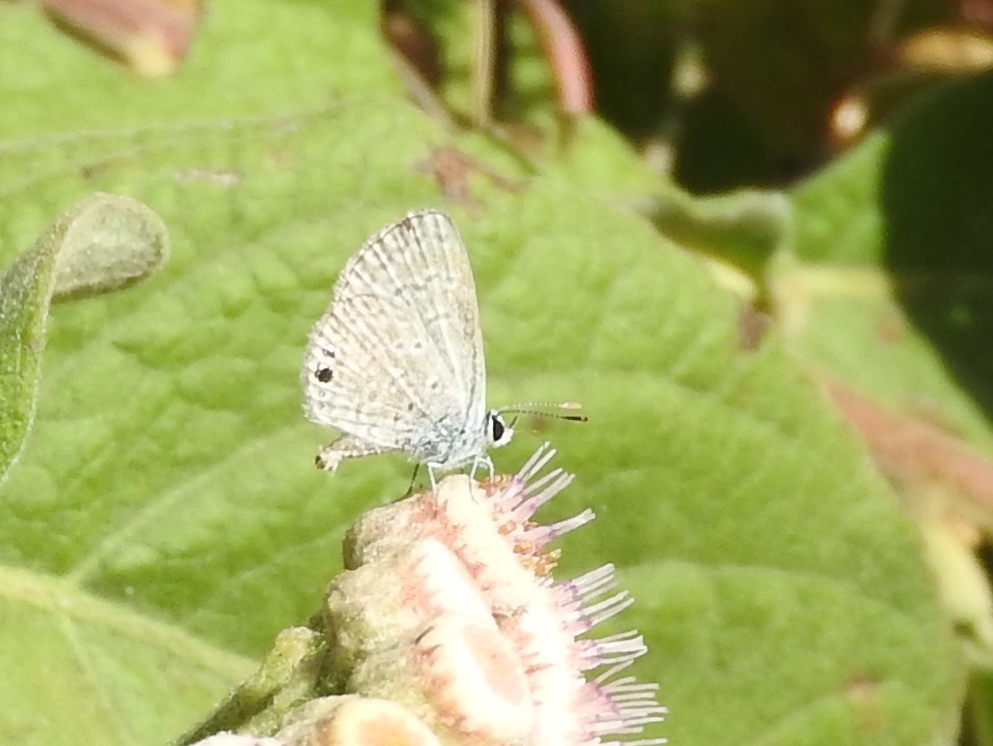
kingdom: Animalia
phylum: Arthropoda
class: Insecta
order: Lepidoptera
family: Lycaenidae
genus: Hemiargus
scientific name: Hemiargus ceraunus
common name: Ceraunus blue
